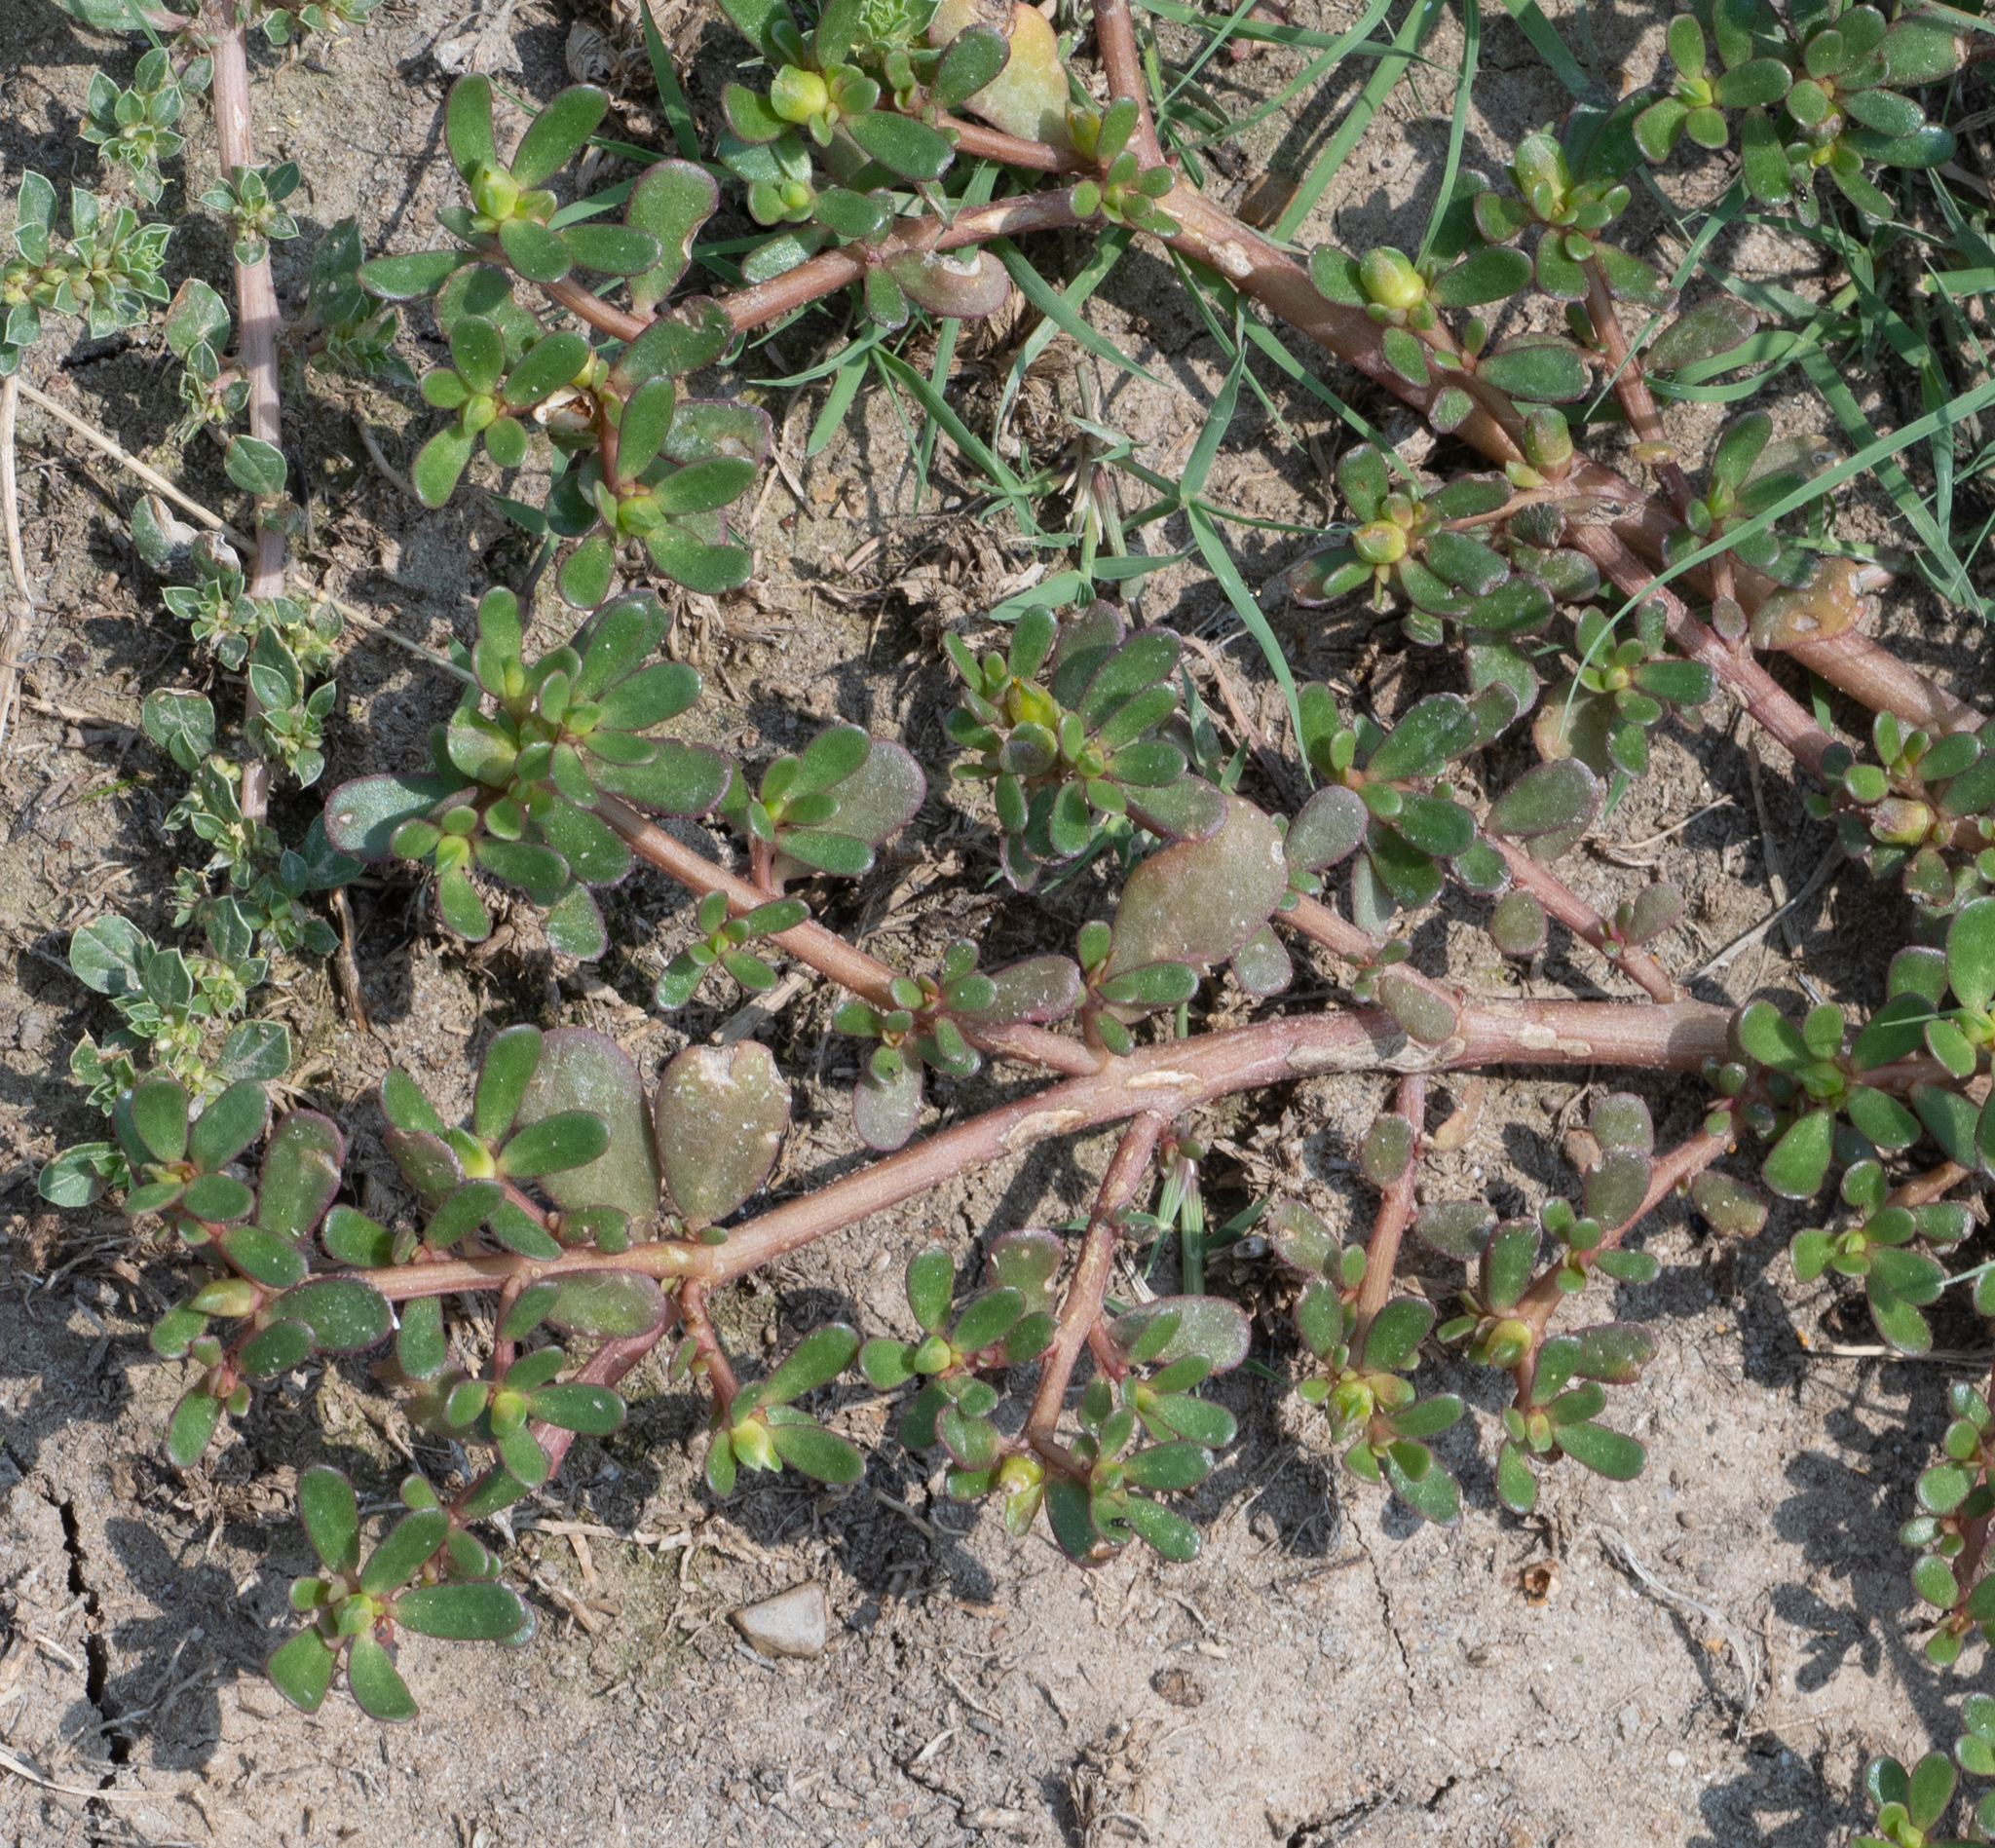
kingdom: Plantae
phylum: Tracheophyta
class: Magnoliopsida
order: Caryophyllales
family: Portulacaceae
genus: Portulaca
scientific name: Portulaca oleracea
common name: Common purslane
